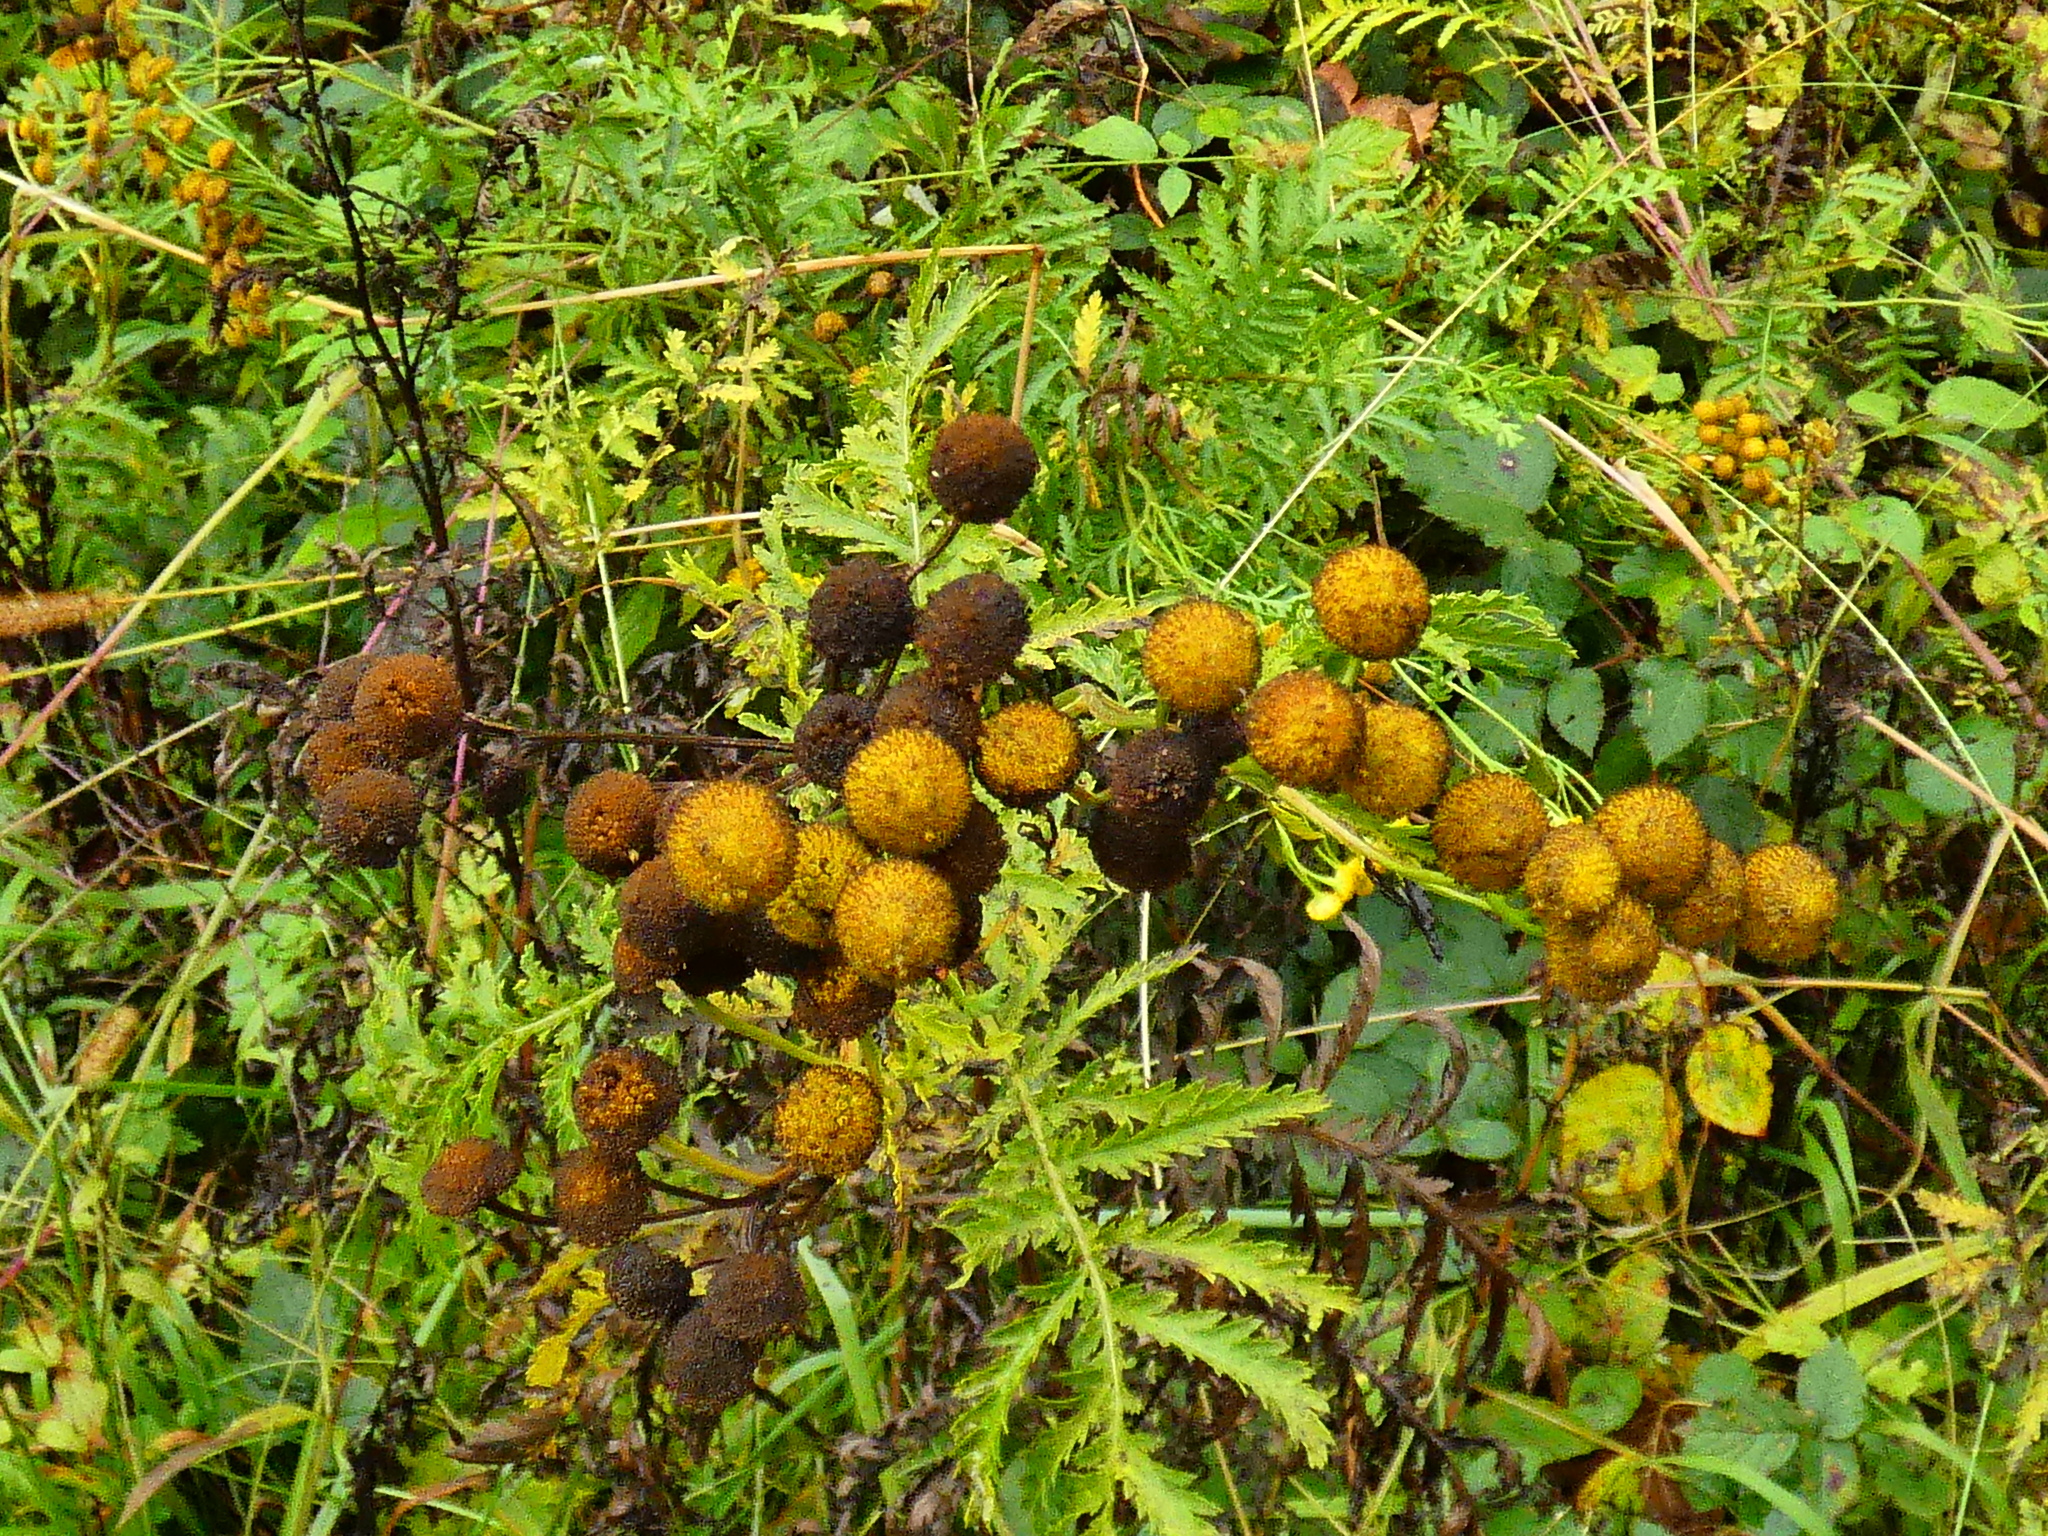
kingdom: Plantae
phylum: Tracheophyta
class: Magnoliopsida
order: Asterales
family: Asteraceae
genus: Tanacetum
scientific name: Tanacetum vulgare
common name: Common tansy
